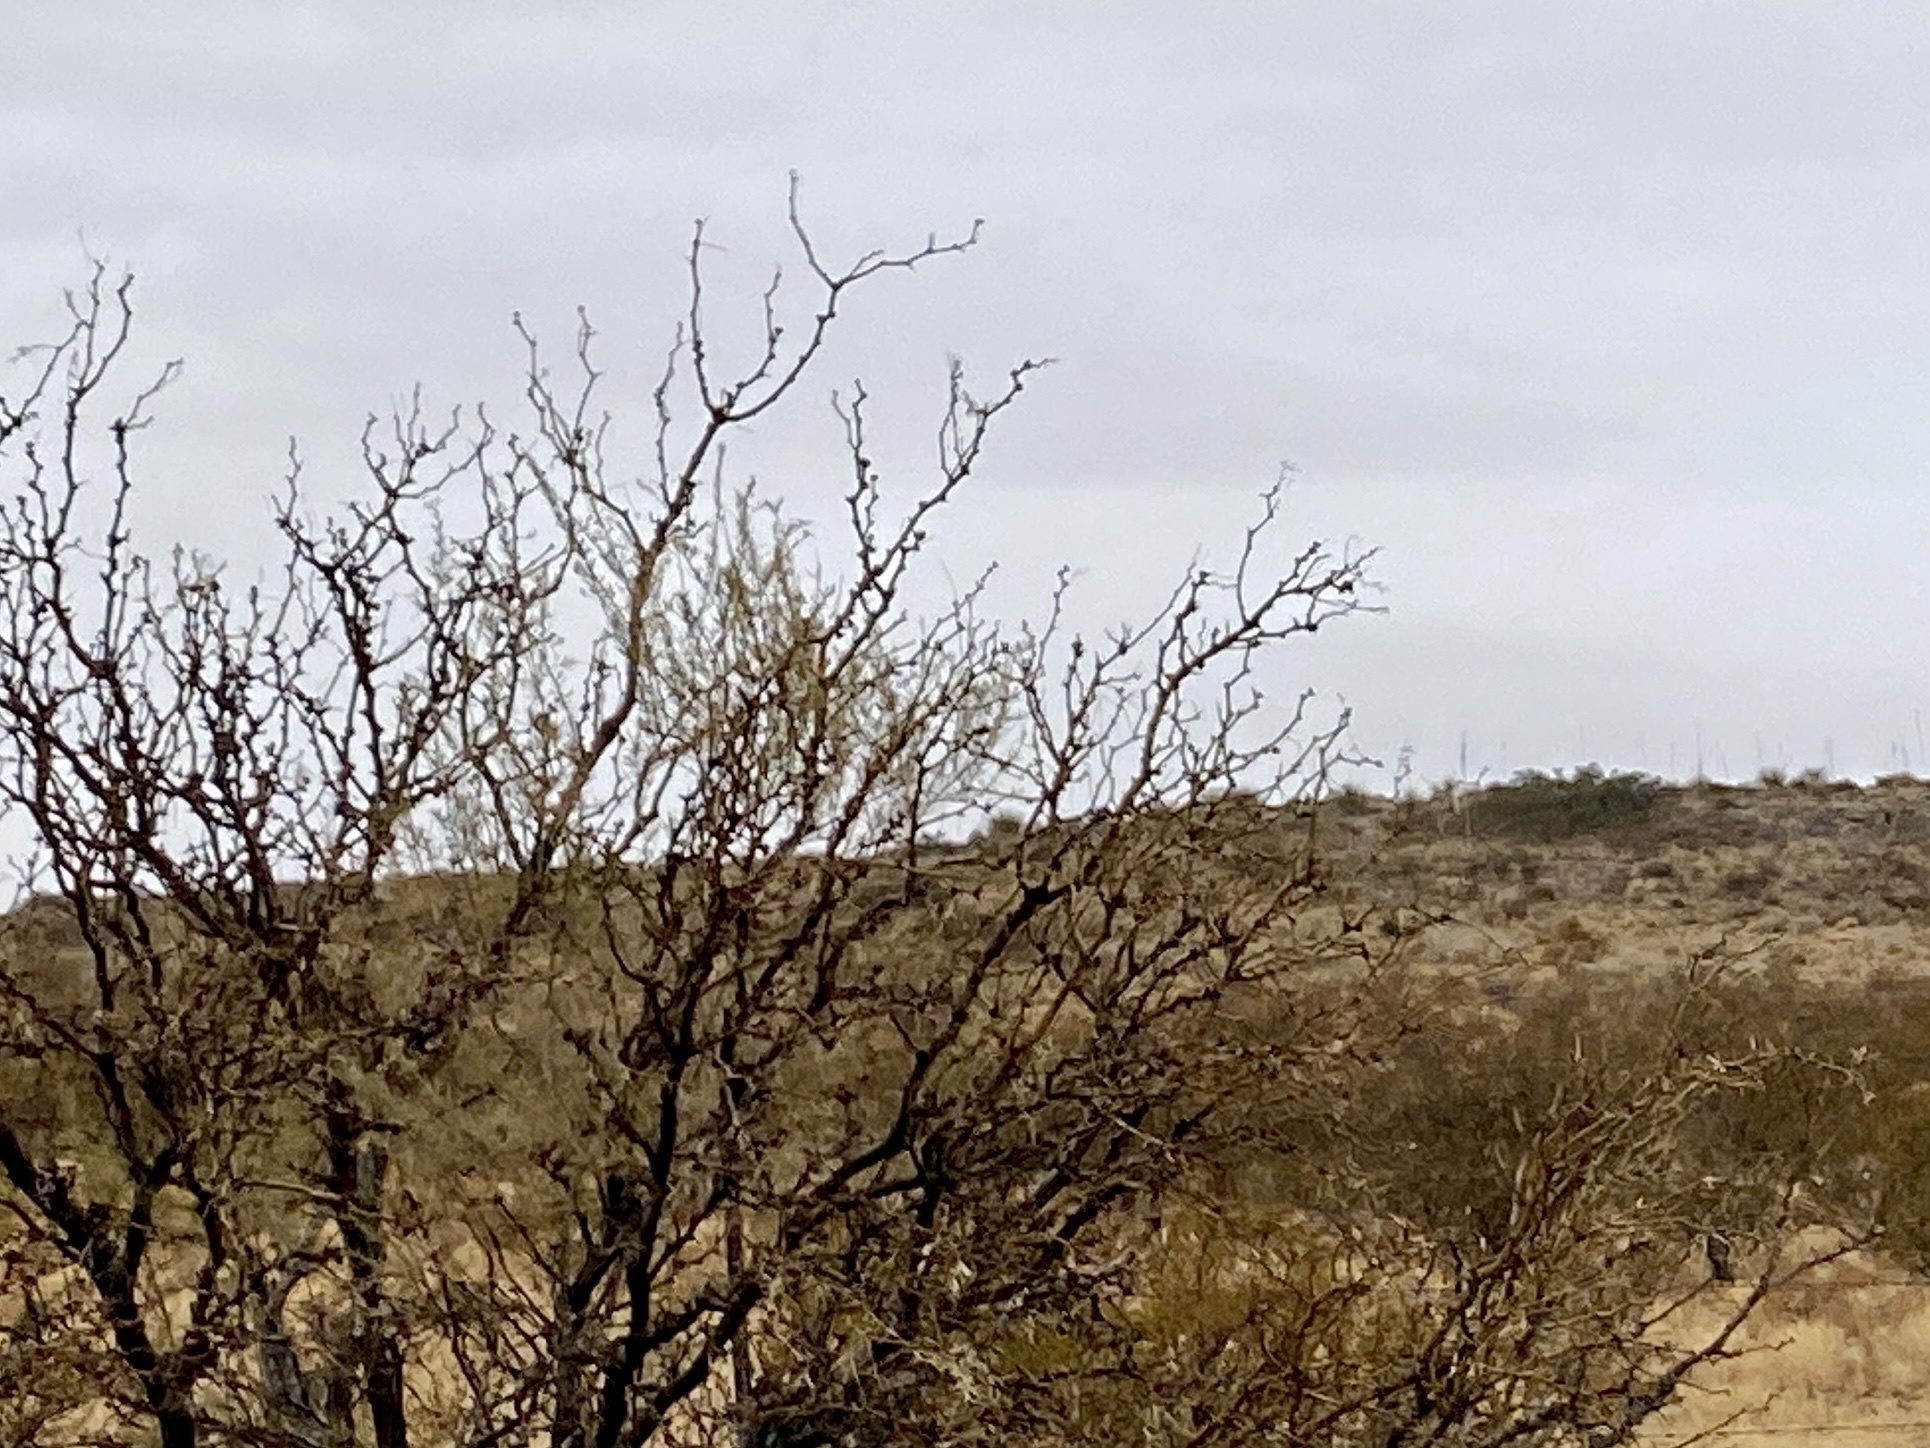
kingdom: Plantae
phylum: Tracheophyta
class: Magnoliopsida
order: Fabales
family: Fabaceae
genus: Prosopis
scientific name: Prosopis glandulosa
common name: Honey mesquite
